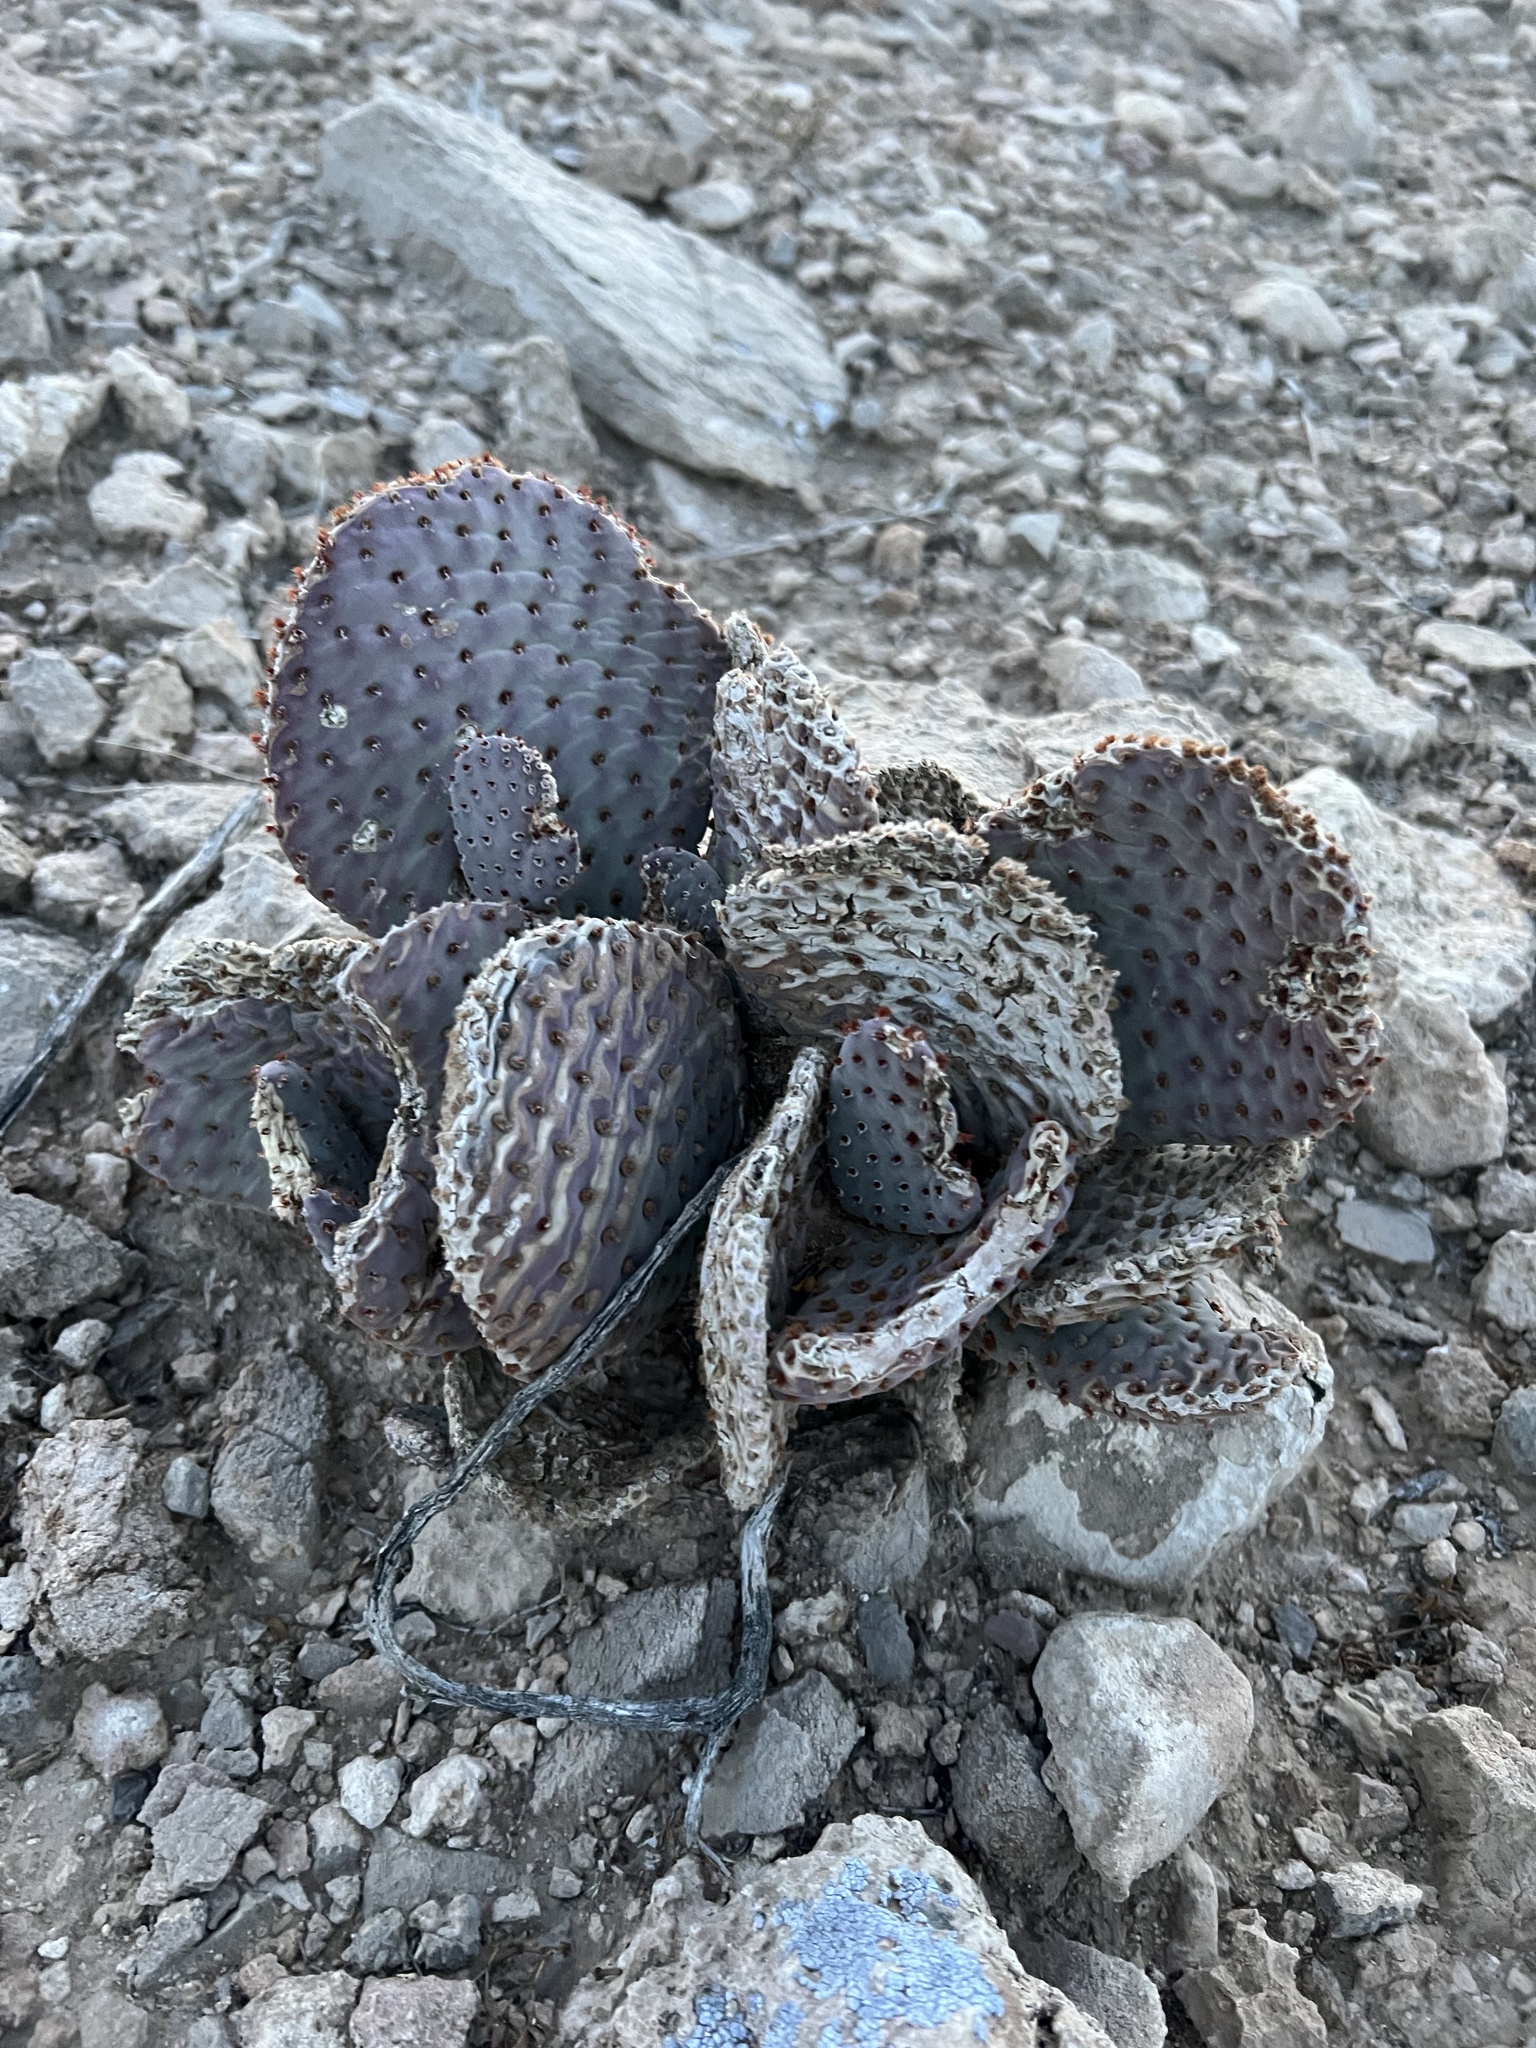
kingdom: Plantae
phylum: Tracheophyta
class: Magnoliopsida
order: Caryophyllales
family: Cactaceae
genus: Opuntia
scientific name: Opuntia basilaris
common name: Beavertail prickly-pear
